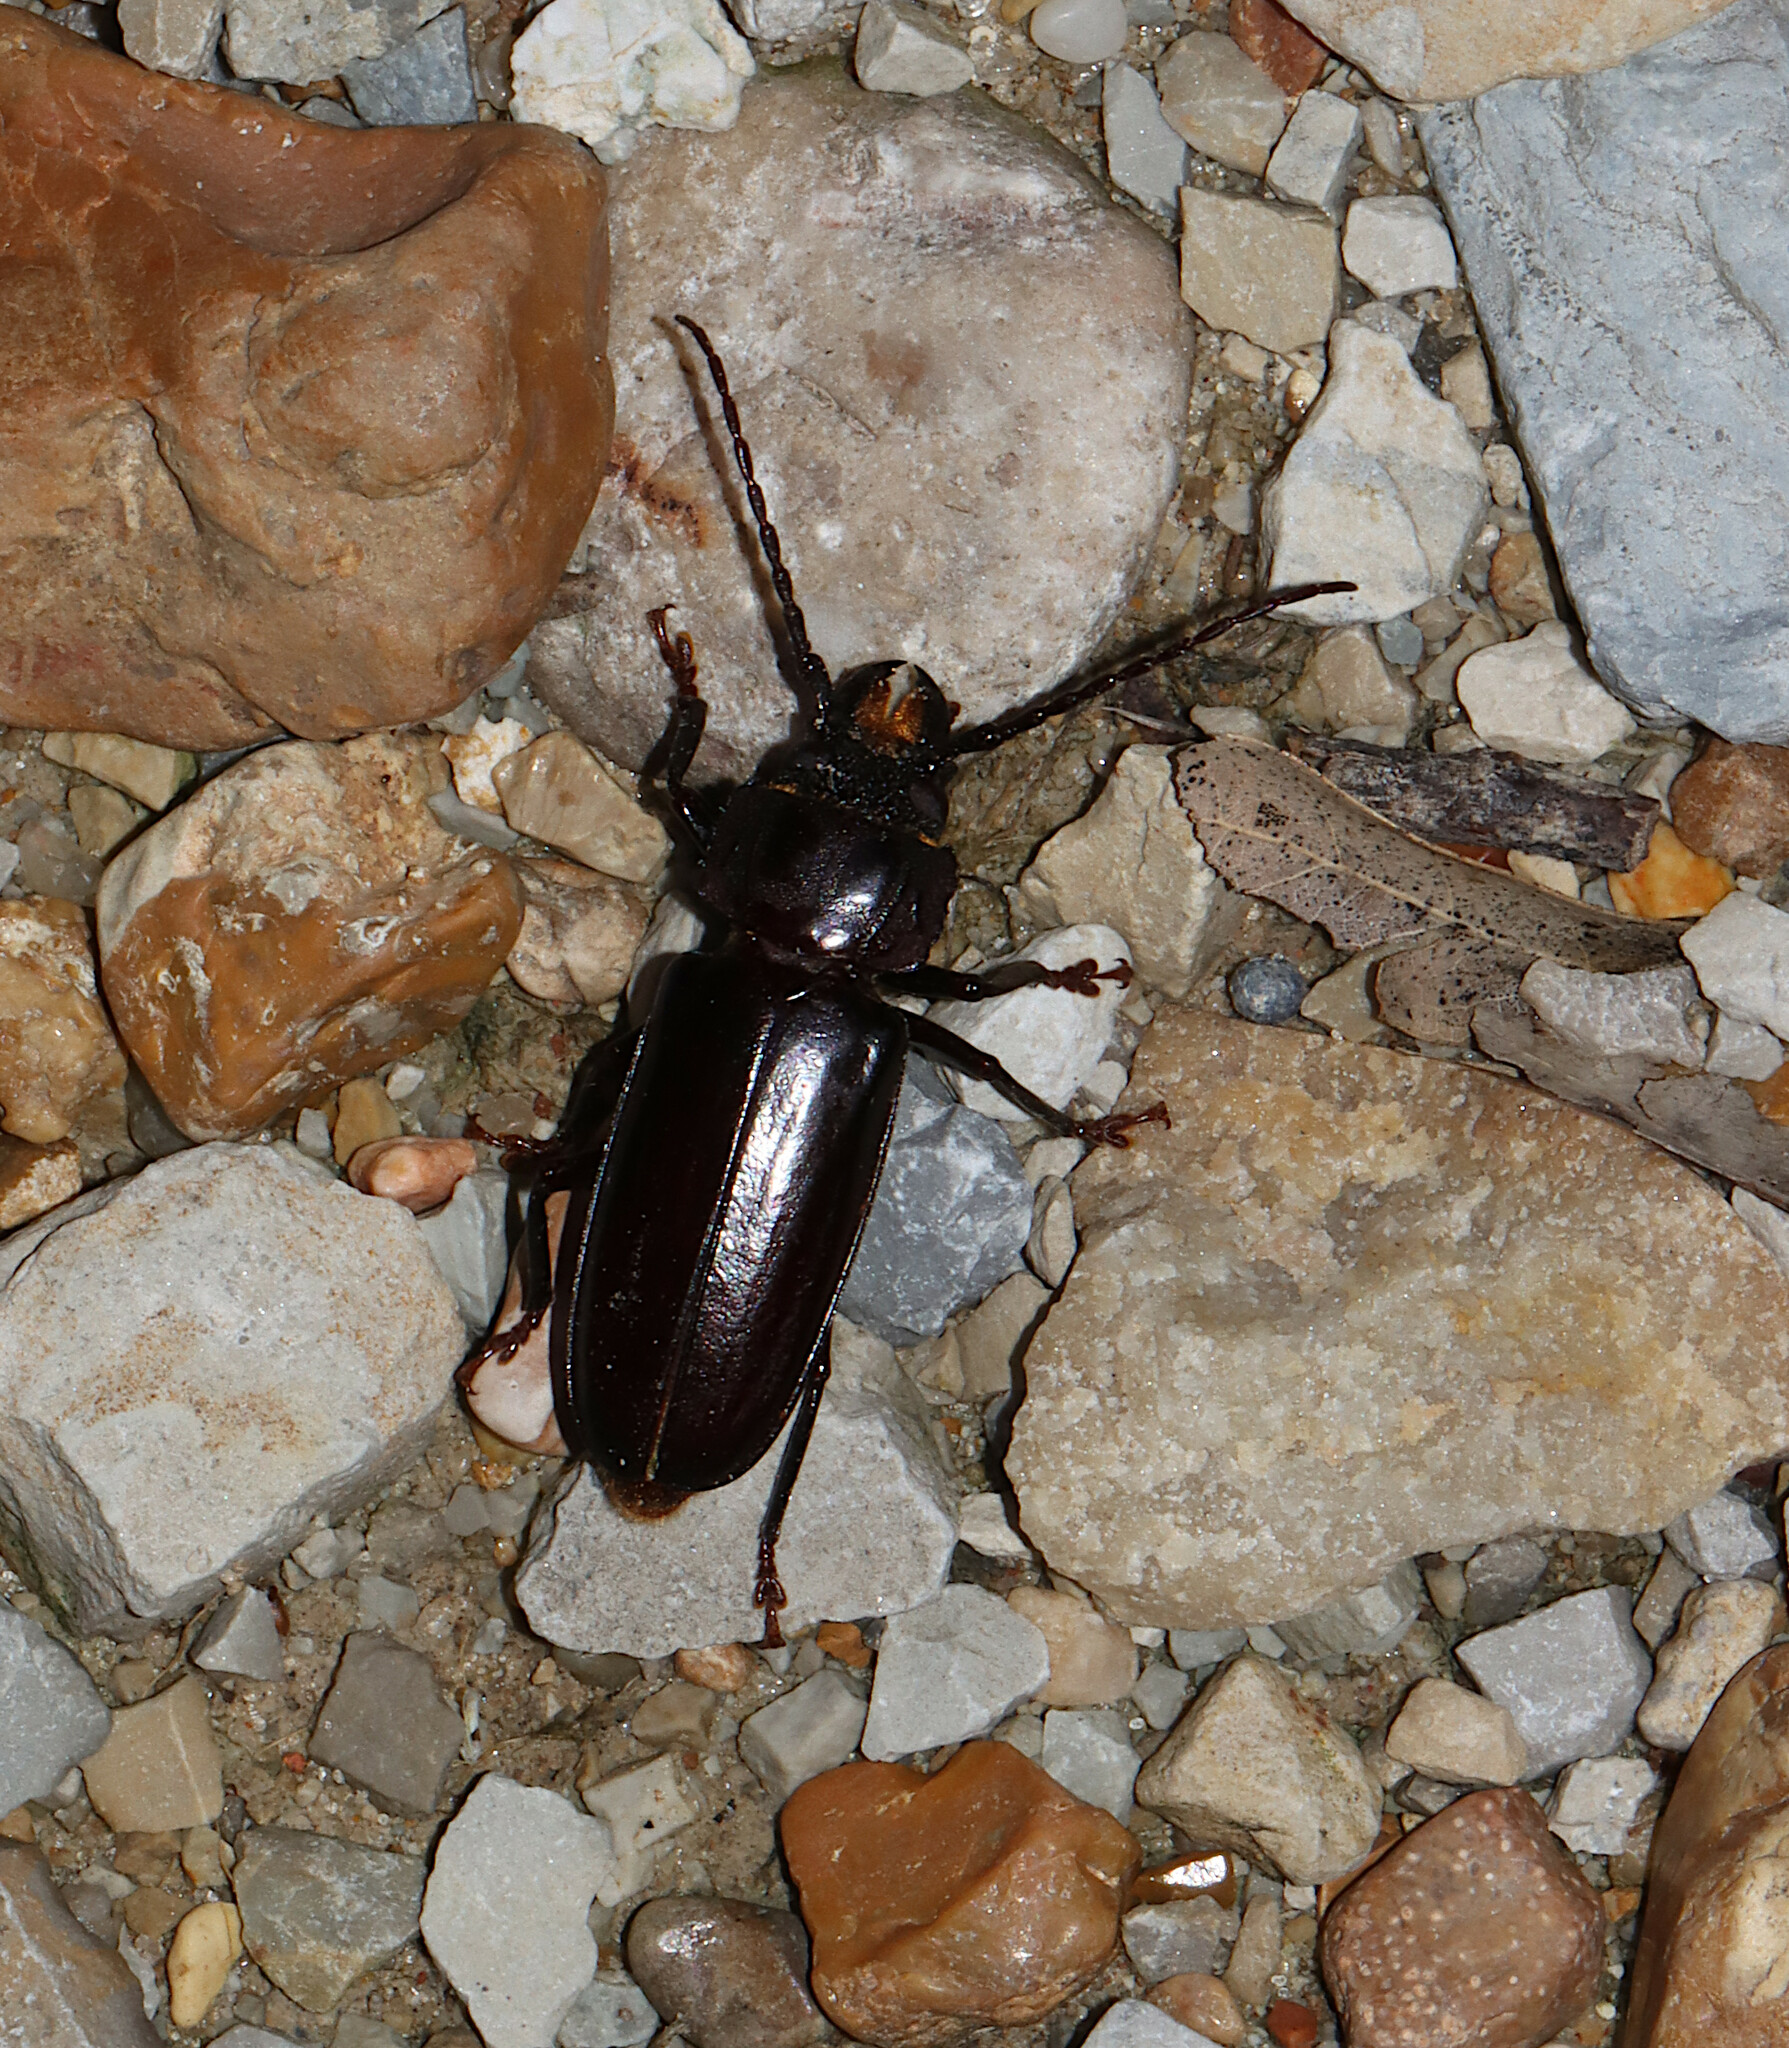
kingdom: Animalia
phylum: Arthropoda
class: Insecta
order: Coleoptera
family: Cerambycidae
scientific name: Cerambycidae
